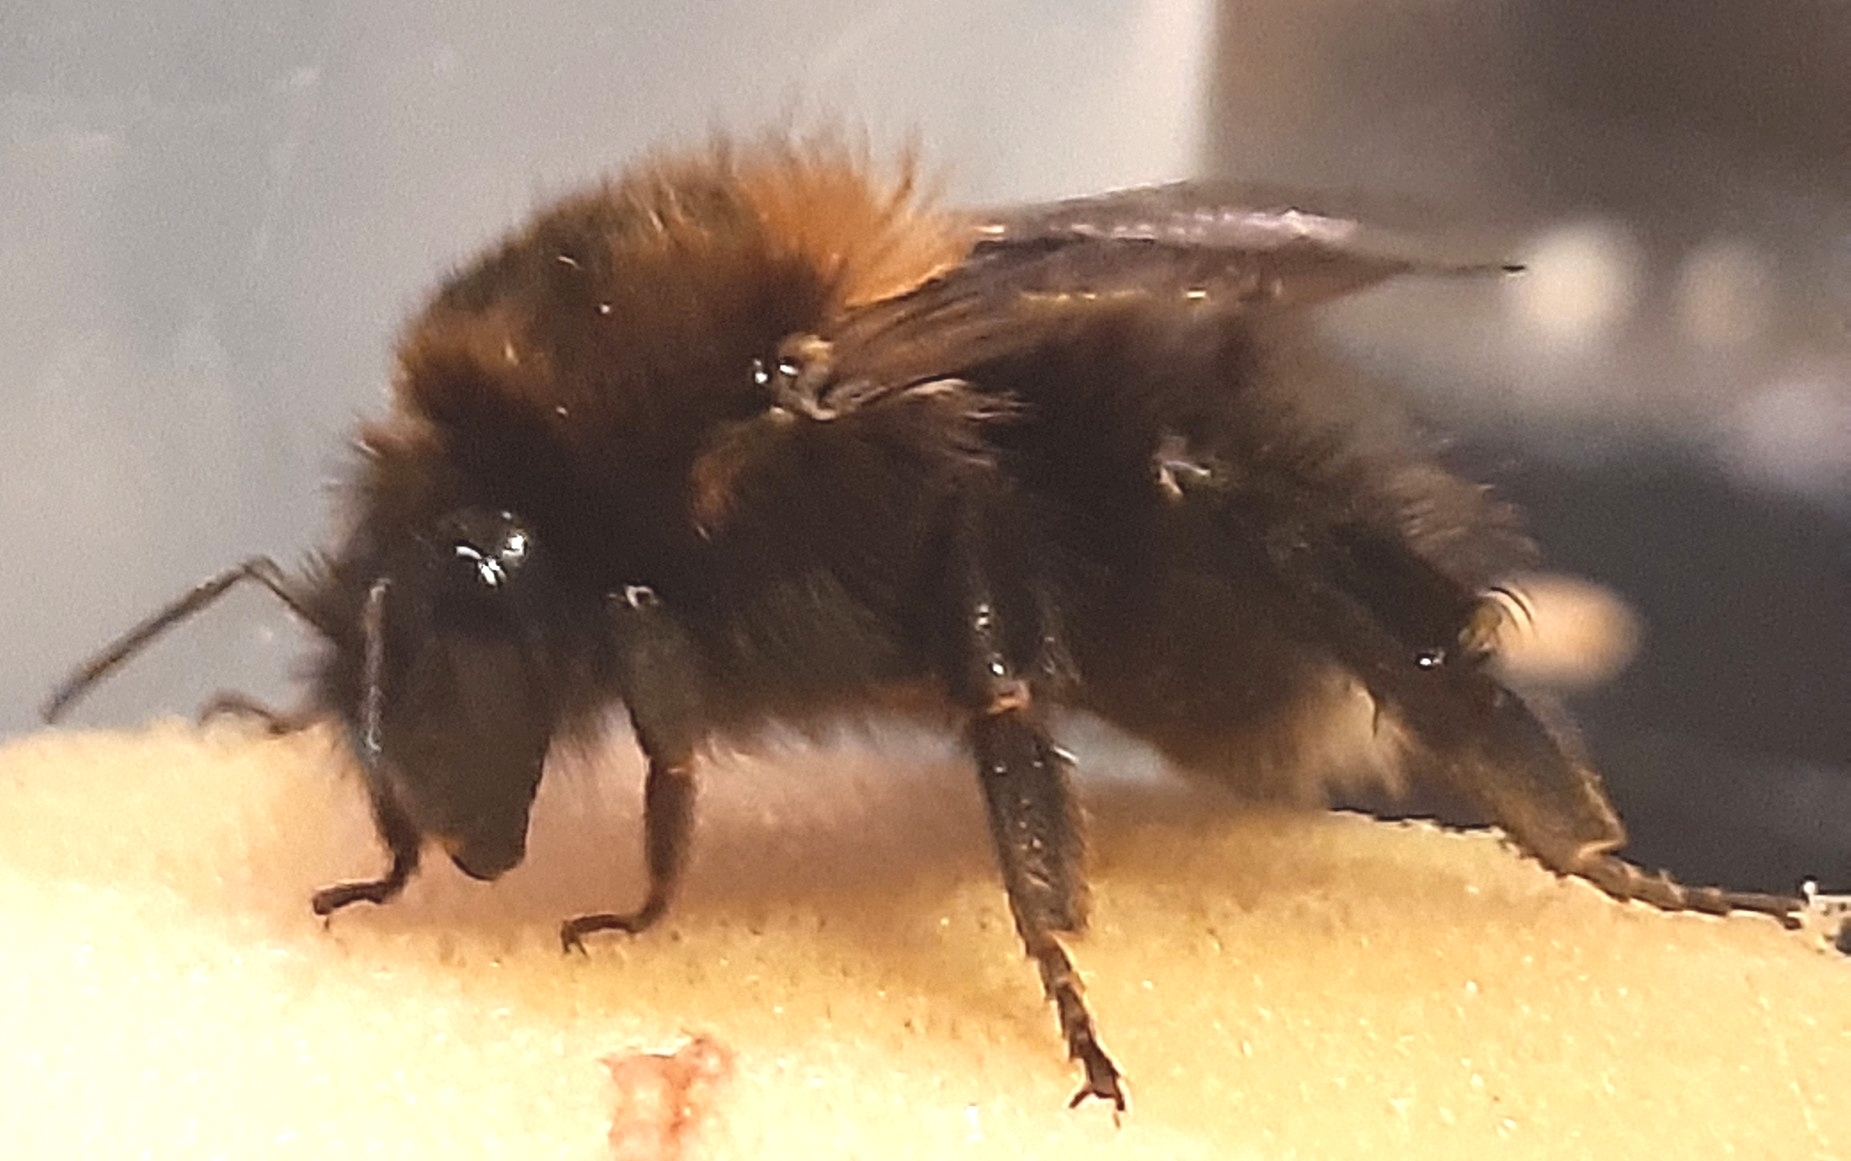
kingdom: Animalia
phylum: Arthropoda
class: Insecta
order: Hymenoptera
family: Apidae
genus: Bombus
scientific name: Bombus hypnorum
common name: New garden bumblebee
